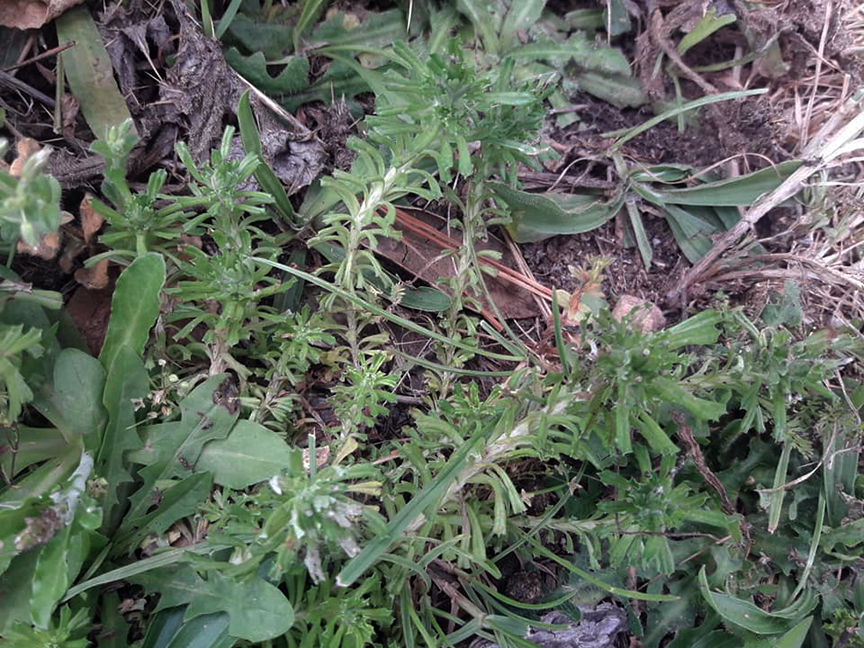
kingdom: Plantae
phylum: Tracheophyta
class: Magnoliopsida
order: Asterales
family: Asteraceae
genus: Facelis
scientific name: Facelis retusa
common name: Annual trampweed
